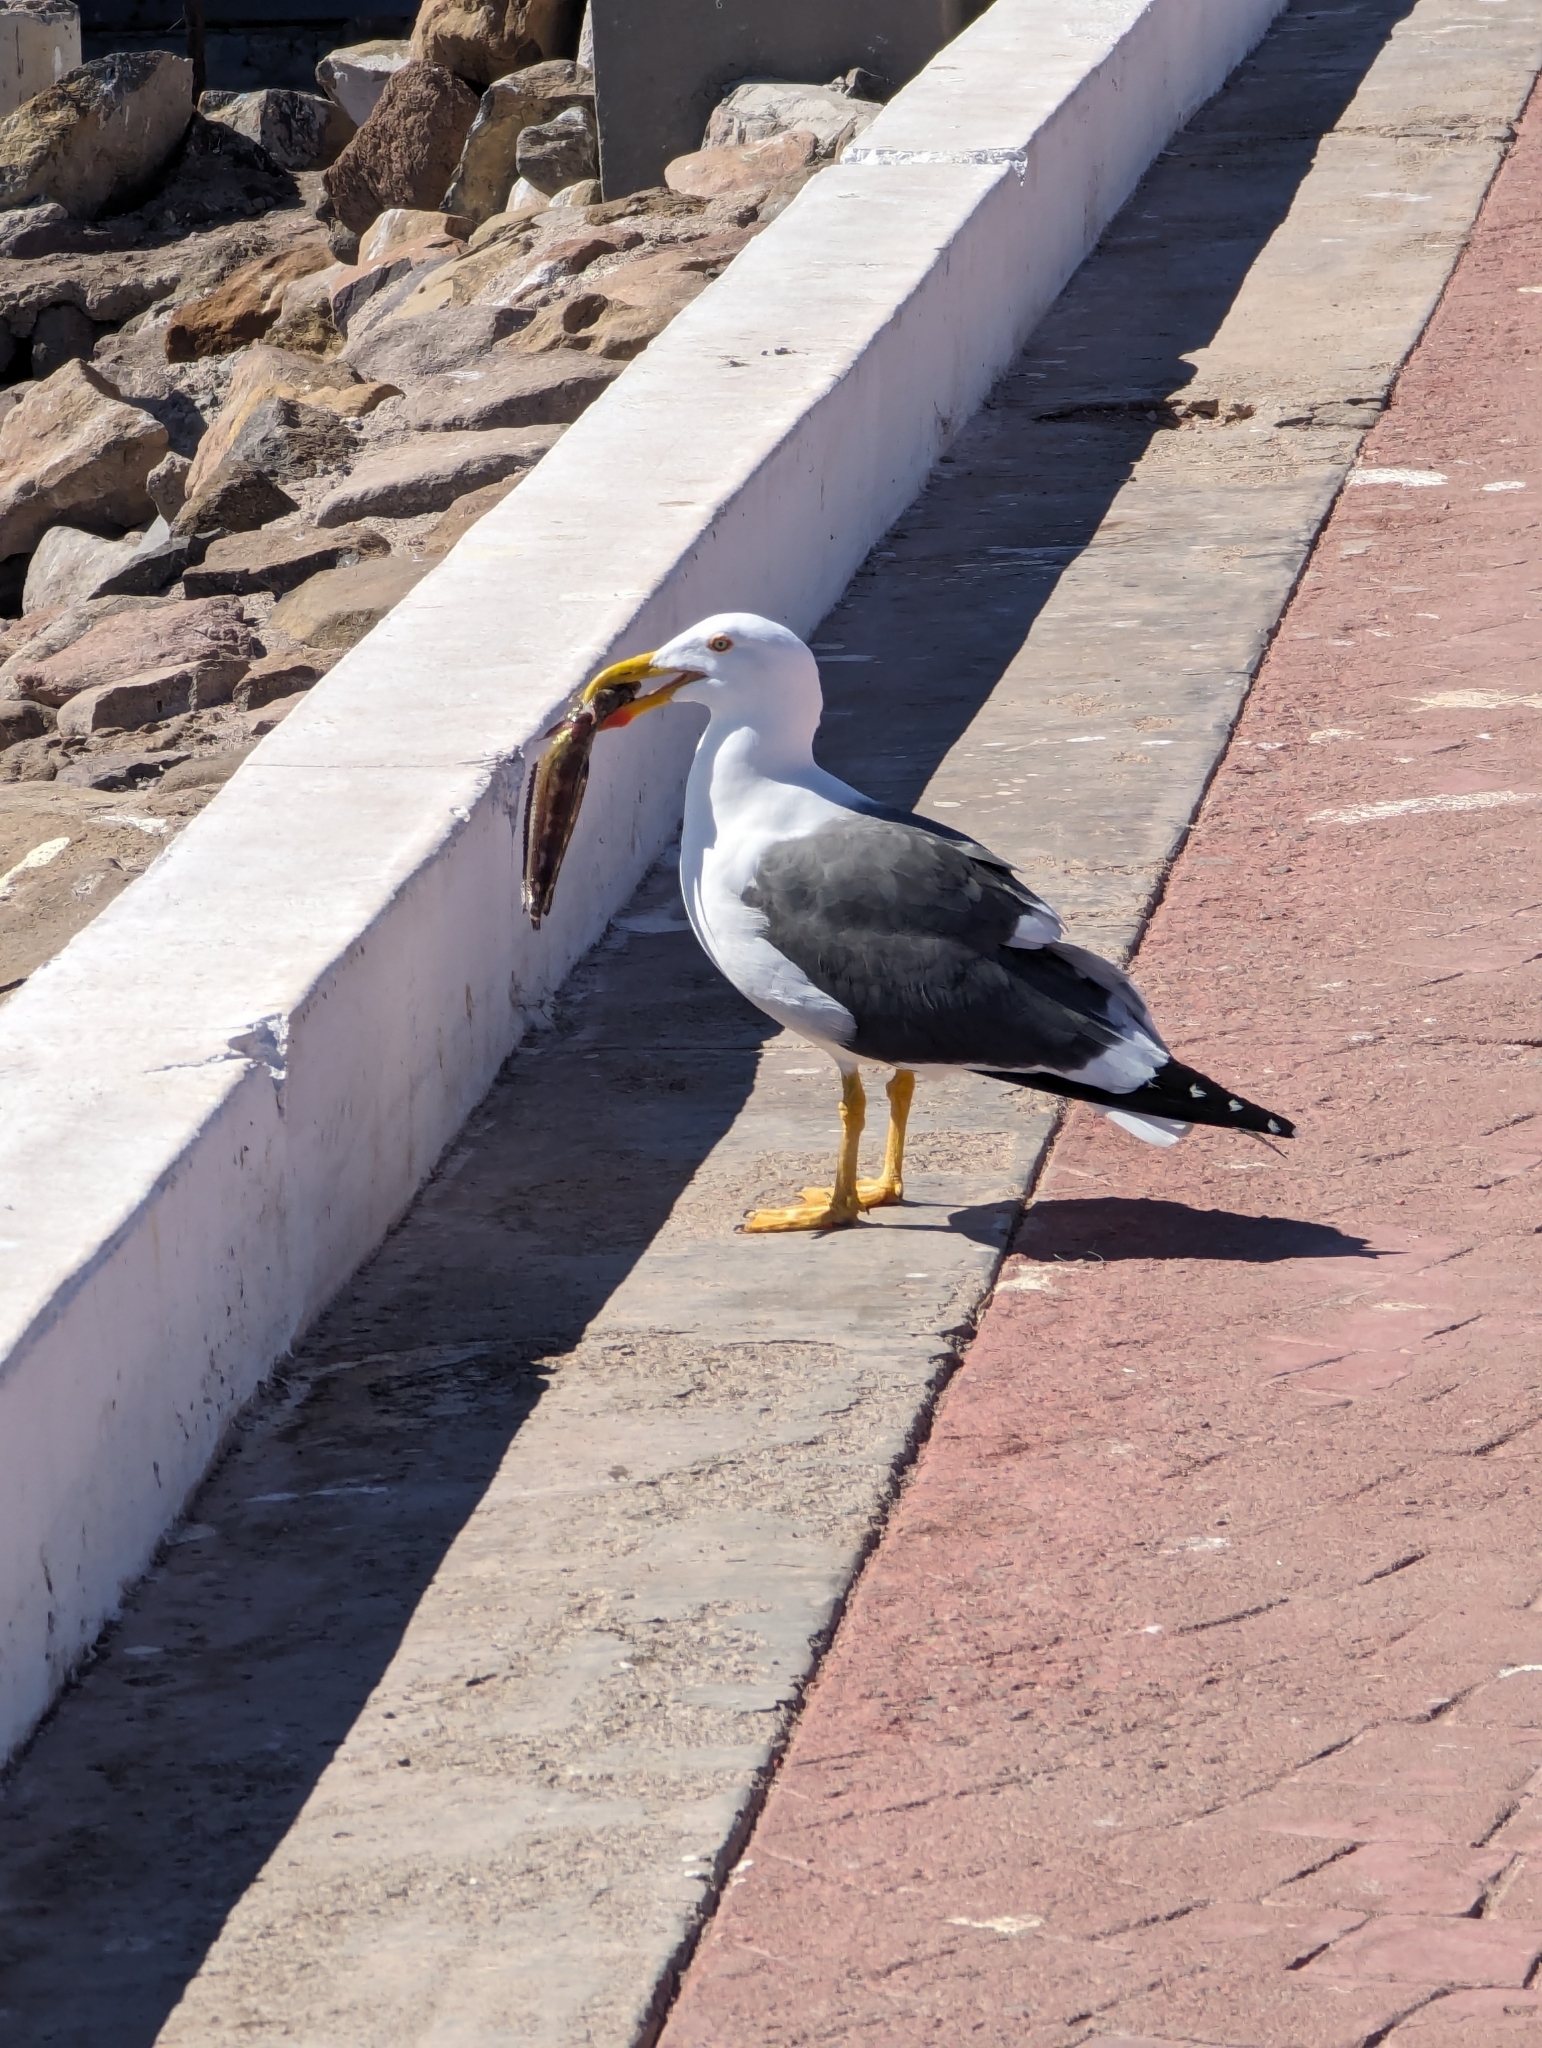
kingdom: Animalia
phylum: Chordata
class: Aves
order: Charadriiformes
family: Laridae
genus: Larus
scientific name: Larus livens
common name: Yellow-footed gull
